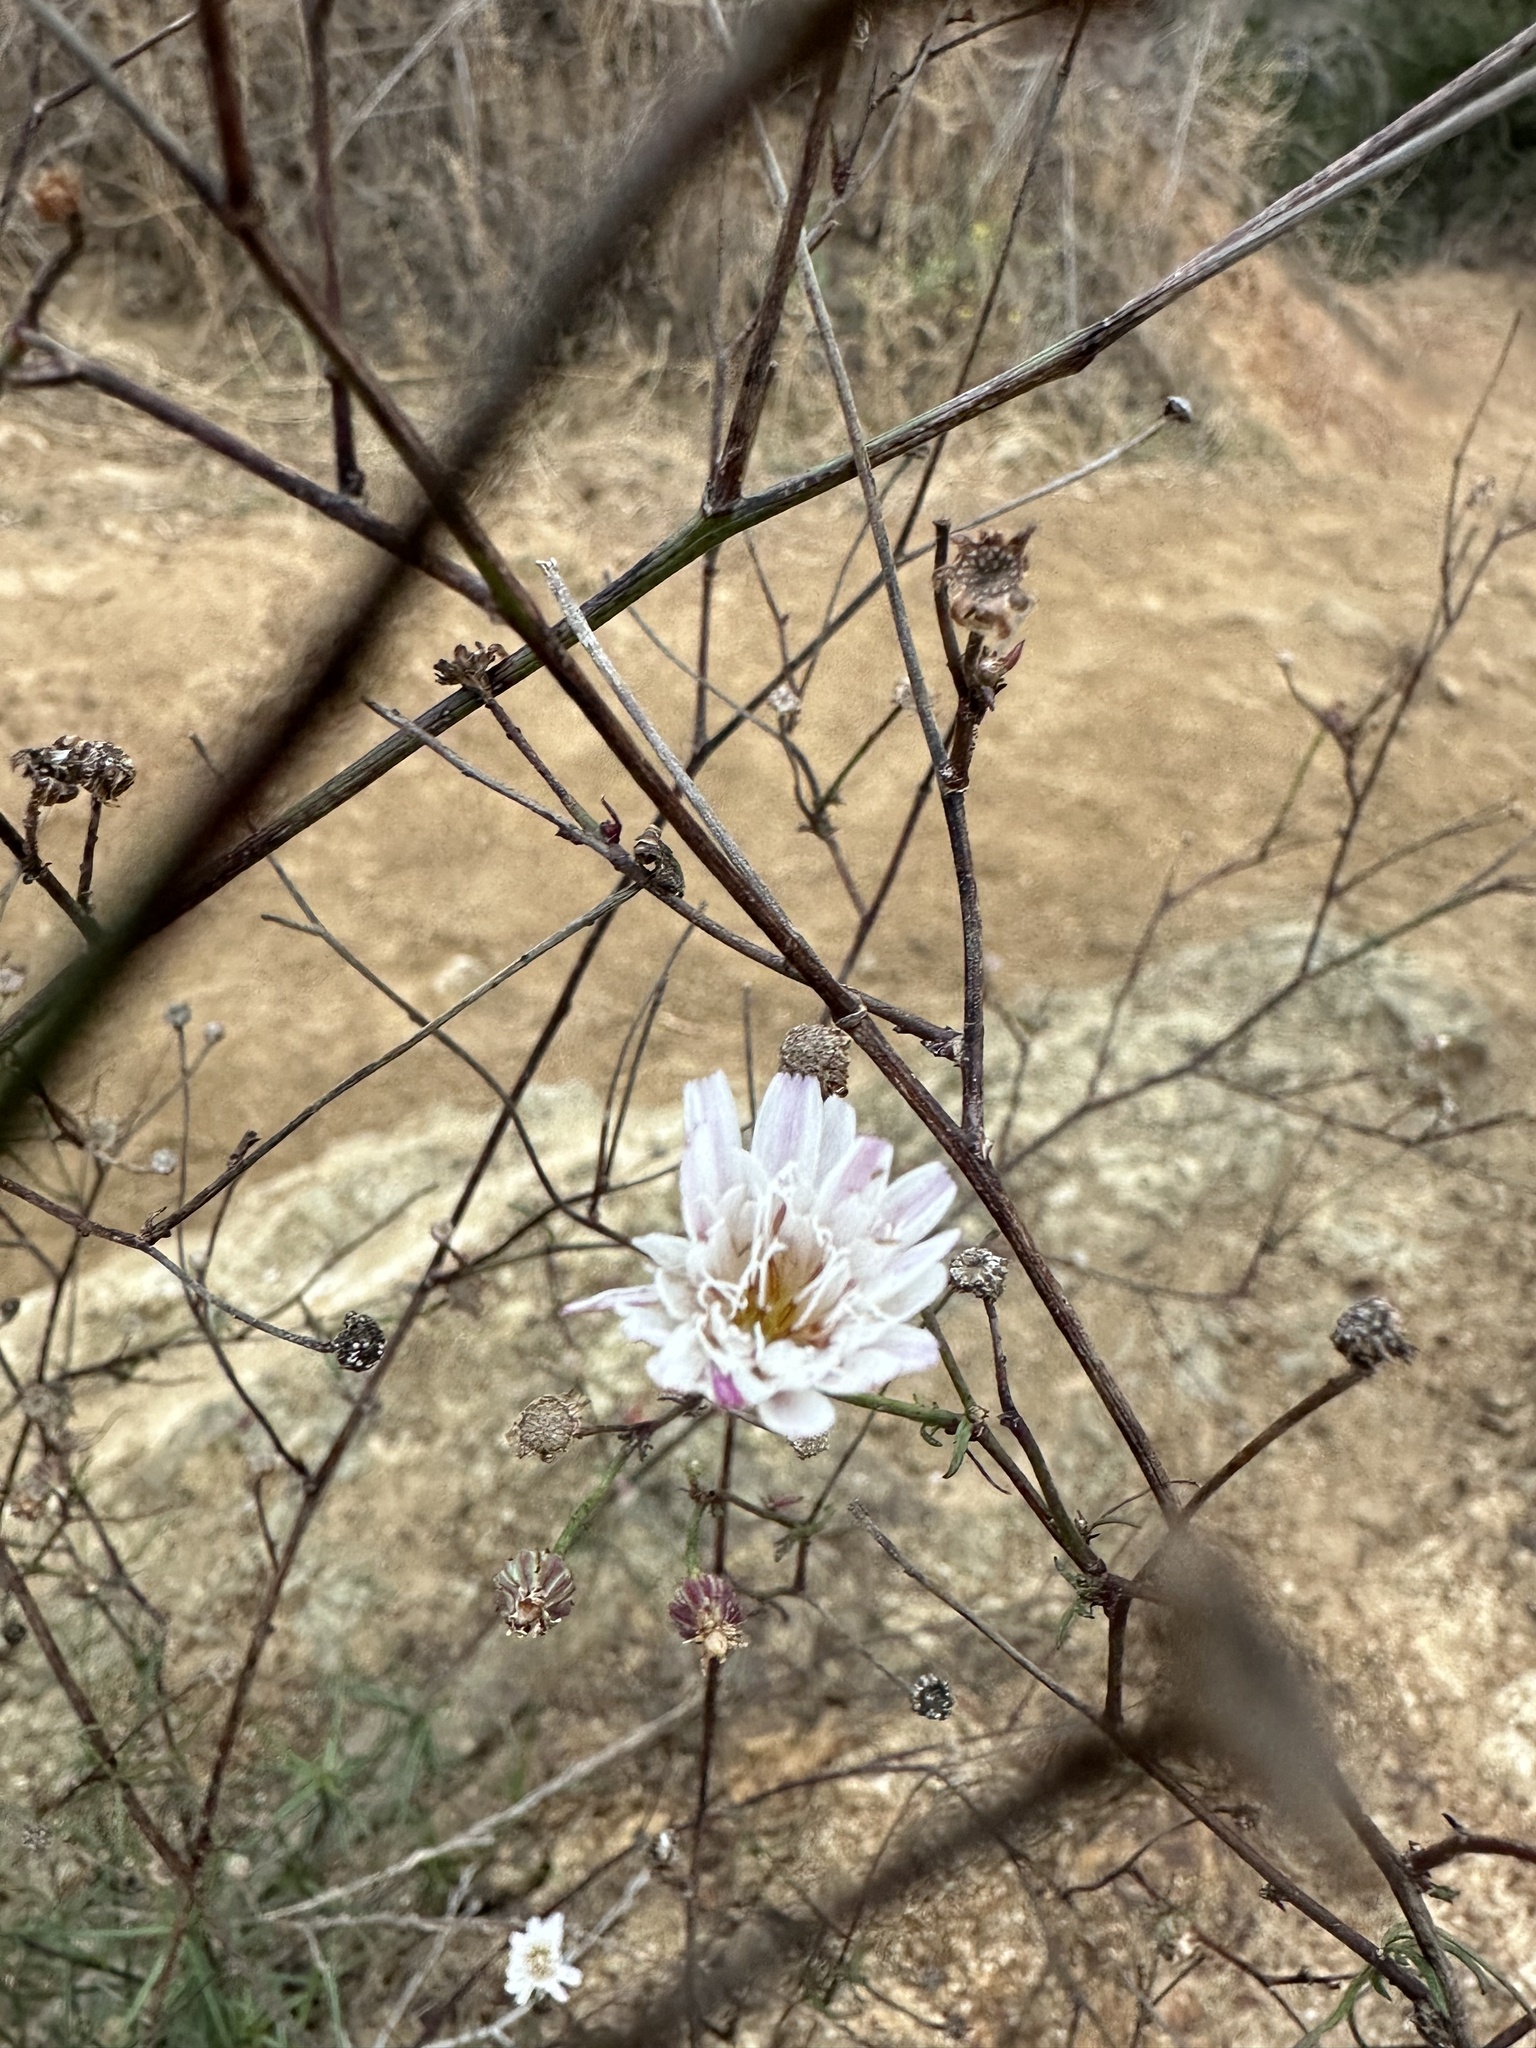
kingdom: Plantae
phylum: Tracheophyta
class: Magnoliopsida
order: Asterales
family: Asteraceae
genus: Malacothrix
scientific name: Malacothrix saxatilis
